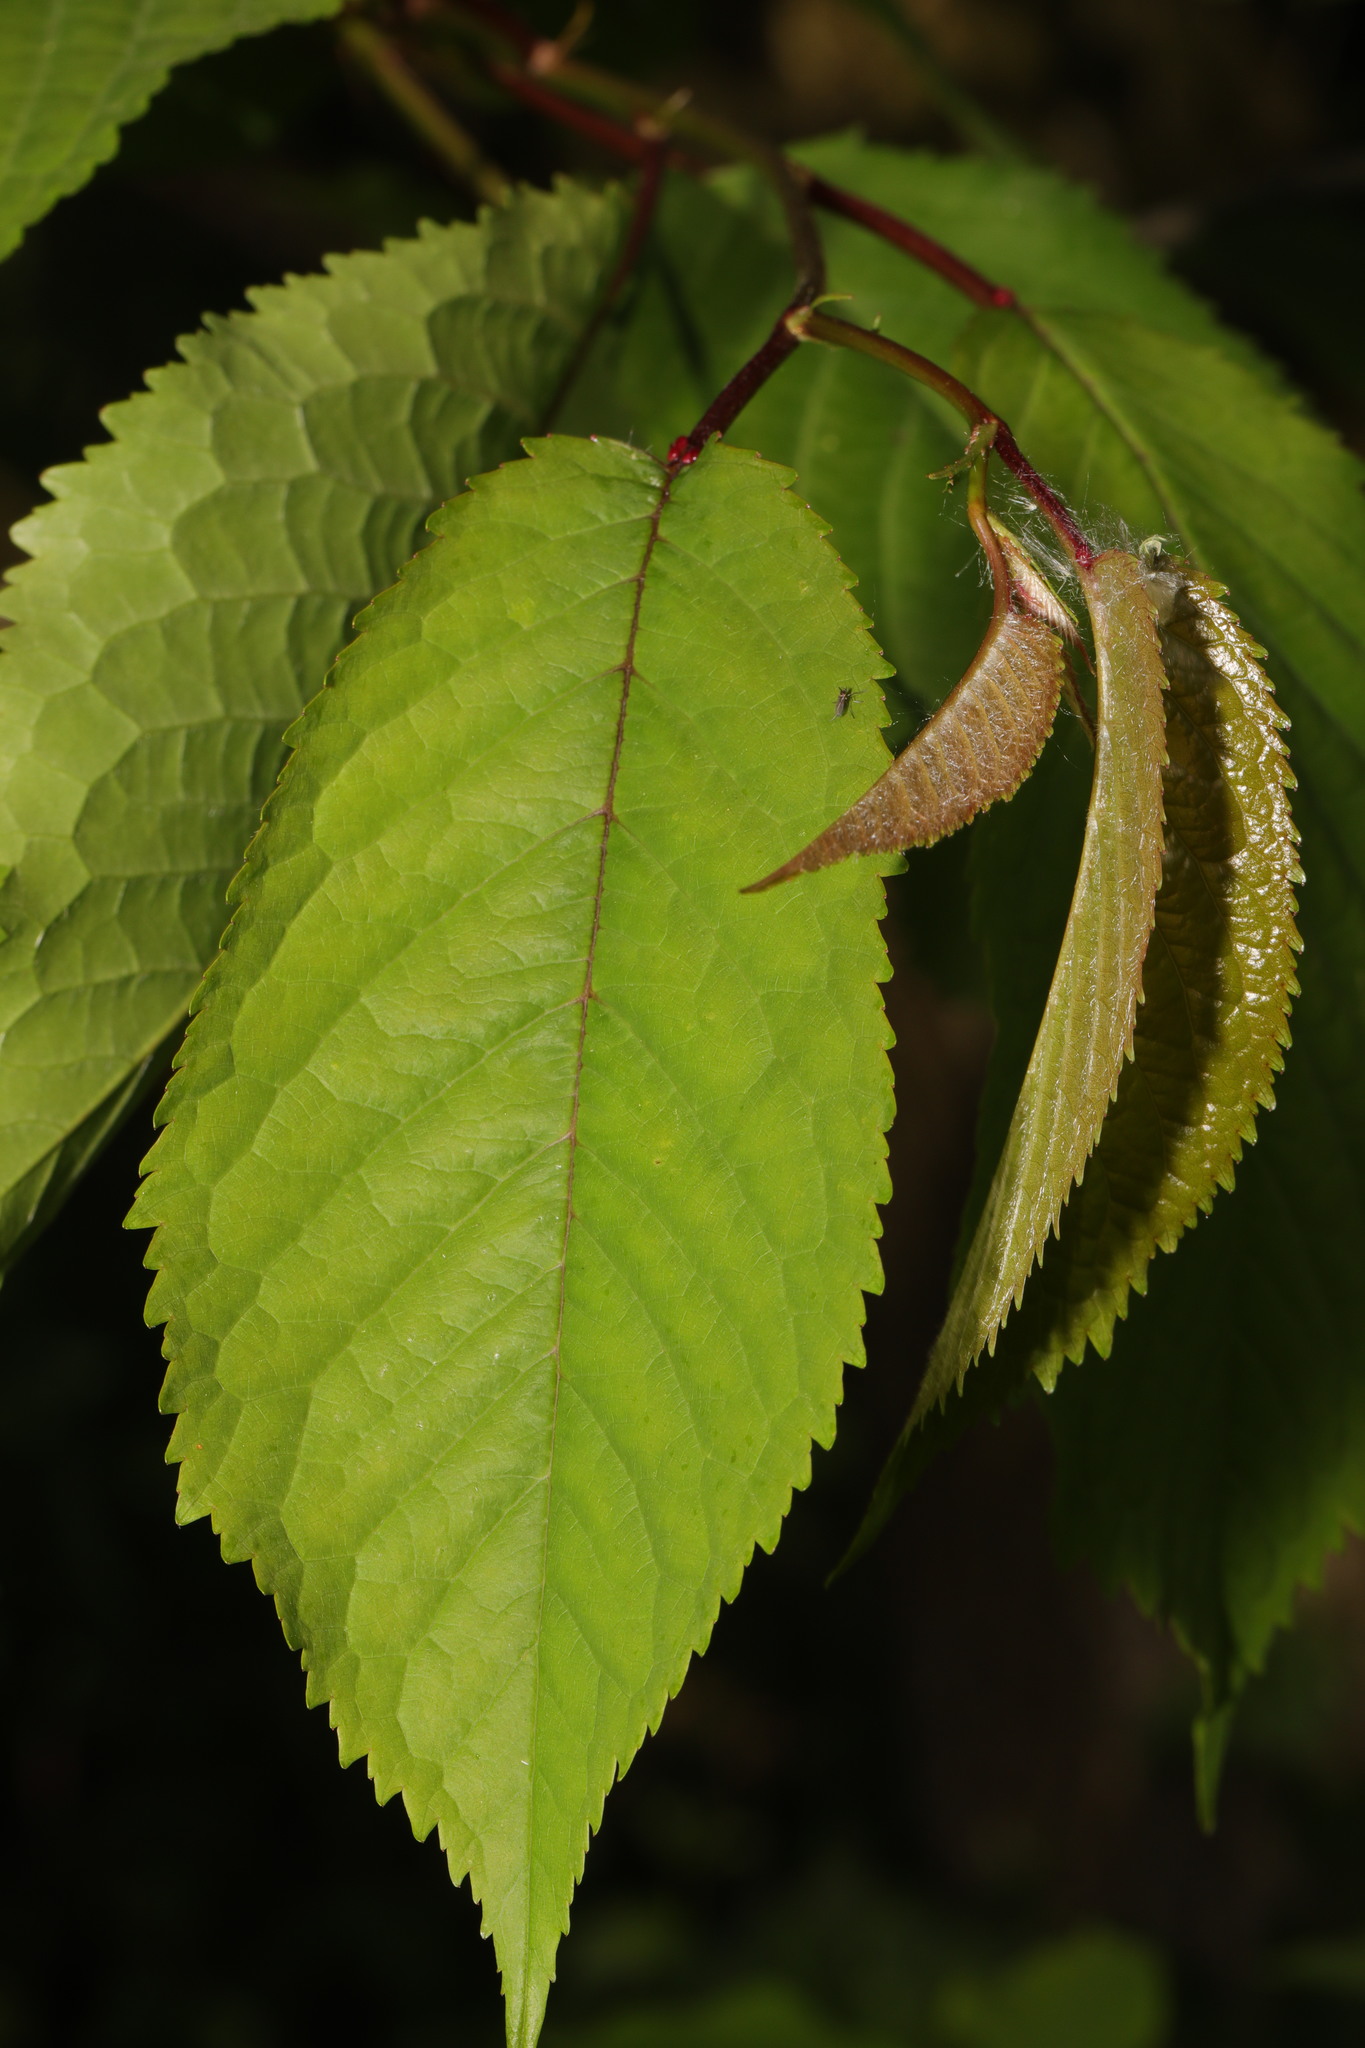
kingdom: Plantae
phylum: Tracheophyta
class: Magnoliopsida
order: Rosales
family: Rosaceae
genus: Prunus
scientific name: Prunus avium
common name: Sweet cherry
